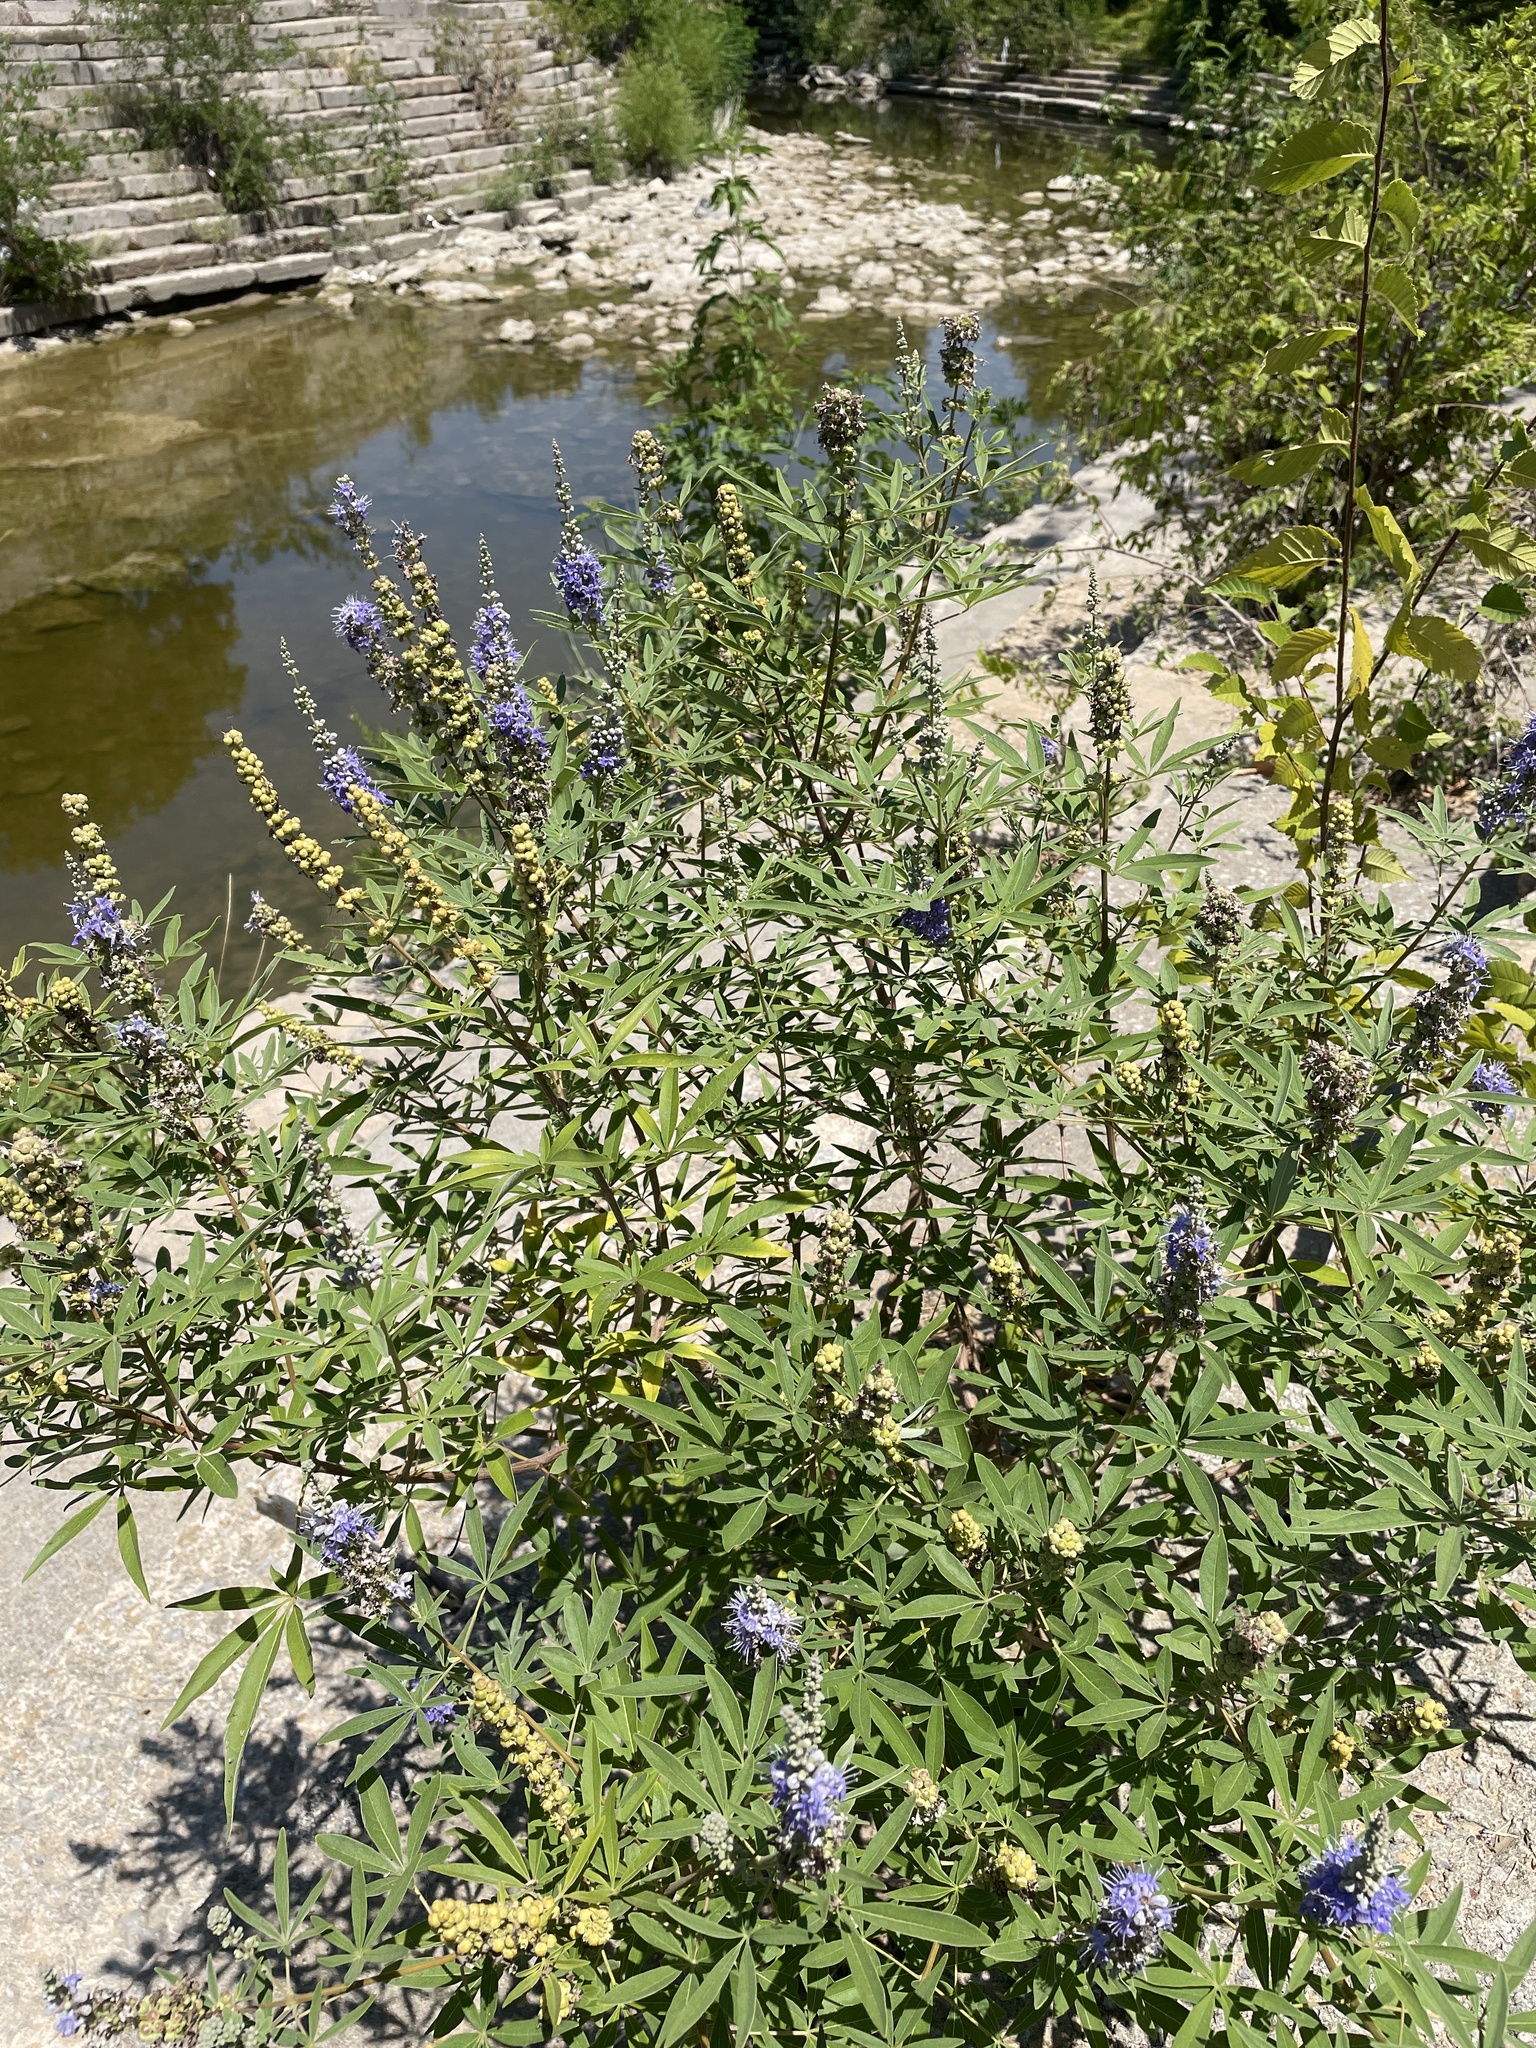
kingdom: Plantae
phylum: Tracheophyta
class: Magnoliopsida
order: Lamiales
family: Lamiaceae
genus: Vitex
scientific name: Vitex agnus-castus
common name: Chasteberry
